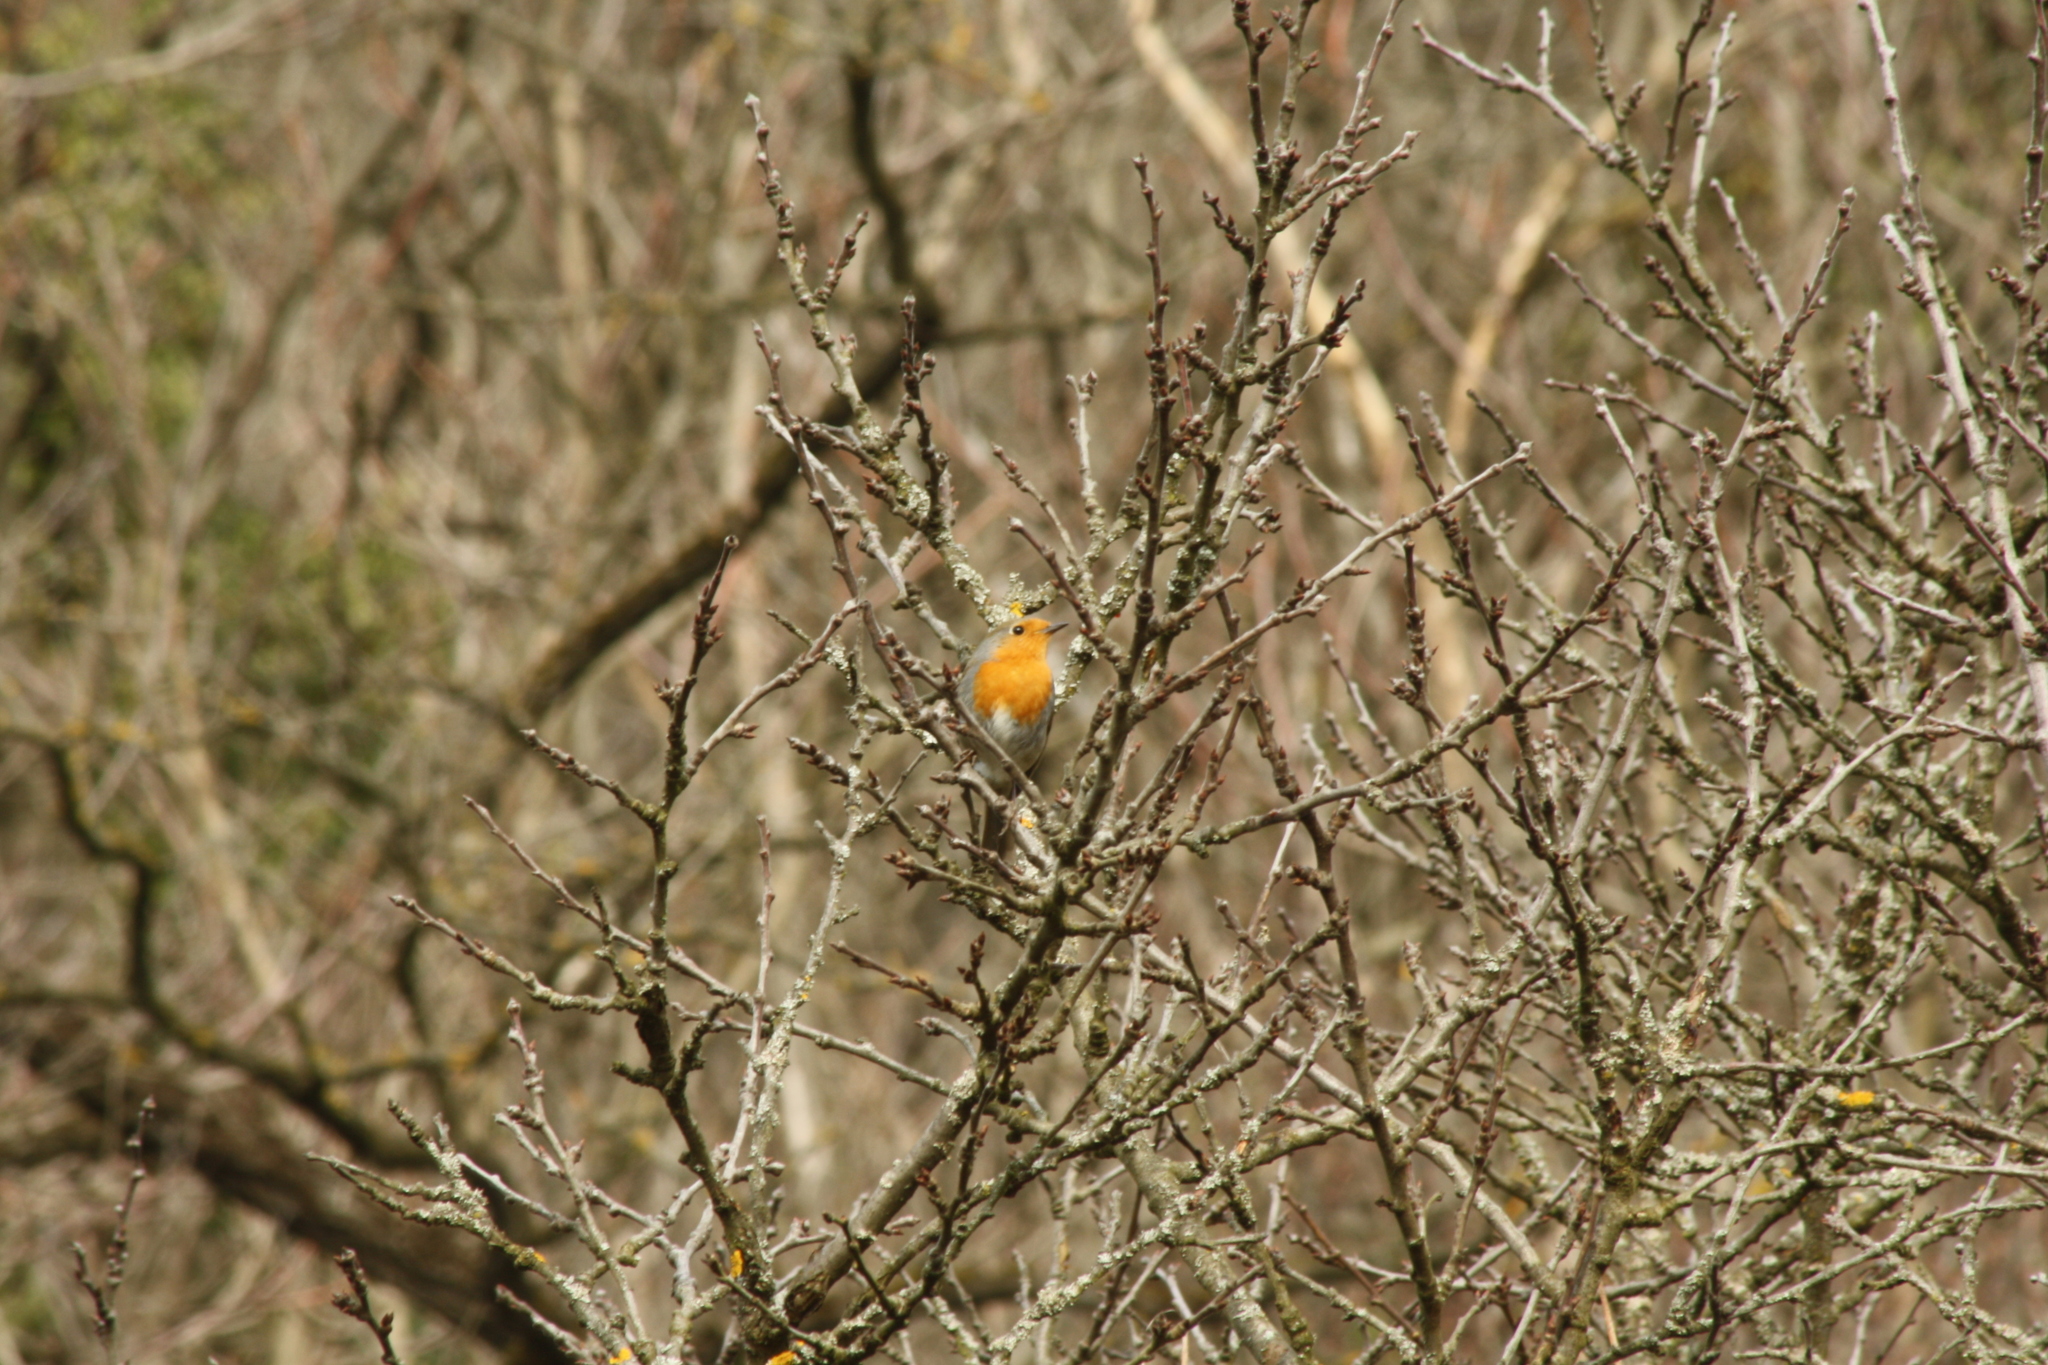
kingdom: Animalia
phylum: Chordata
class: Aves
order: Passeriformes
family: Muscicapidae
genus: Erithacus
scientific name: Erithacus rubecula
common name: European robin
